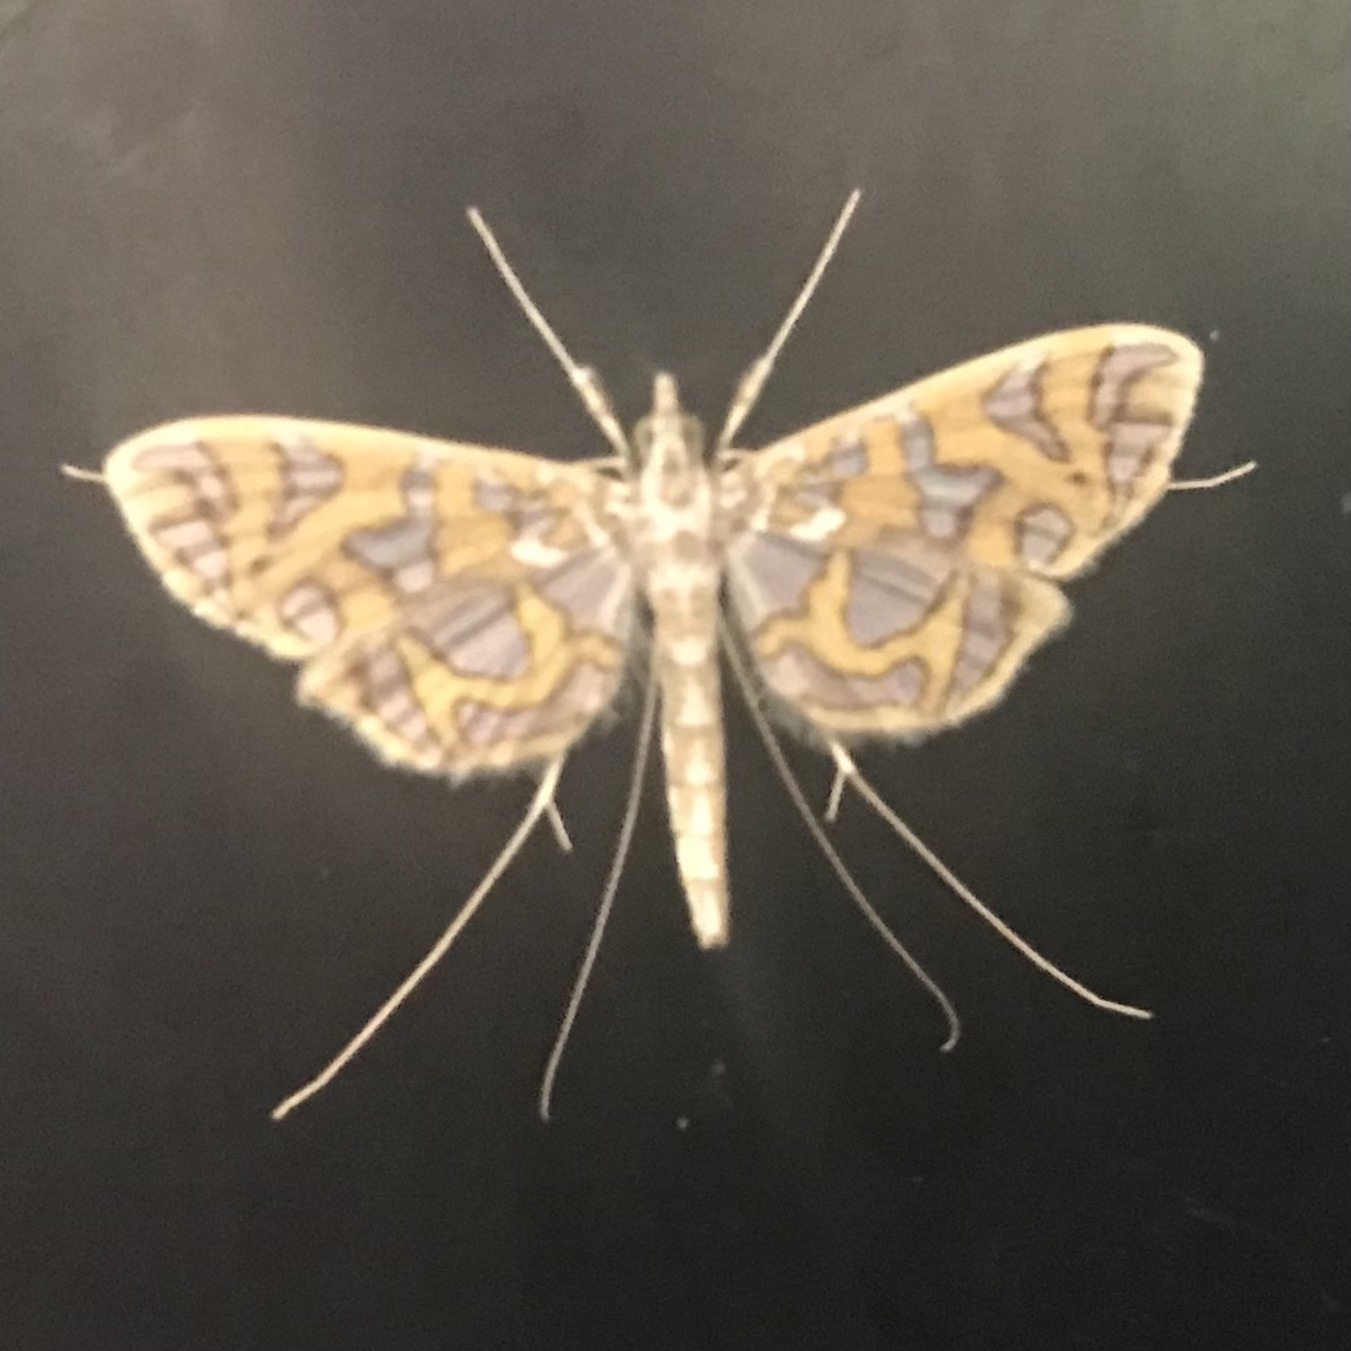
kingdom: Animalia
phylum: Arthropoda
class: Insecta
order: Lepidoptera
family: Crambidae
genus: Polythlipta
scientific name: Polythlipta annulifera
